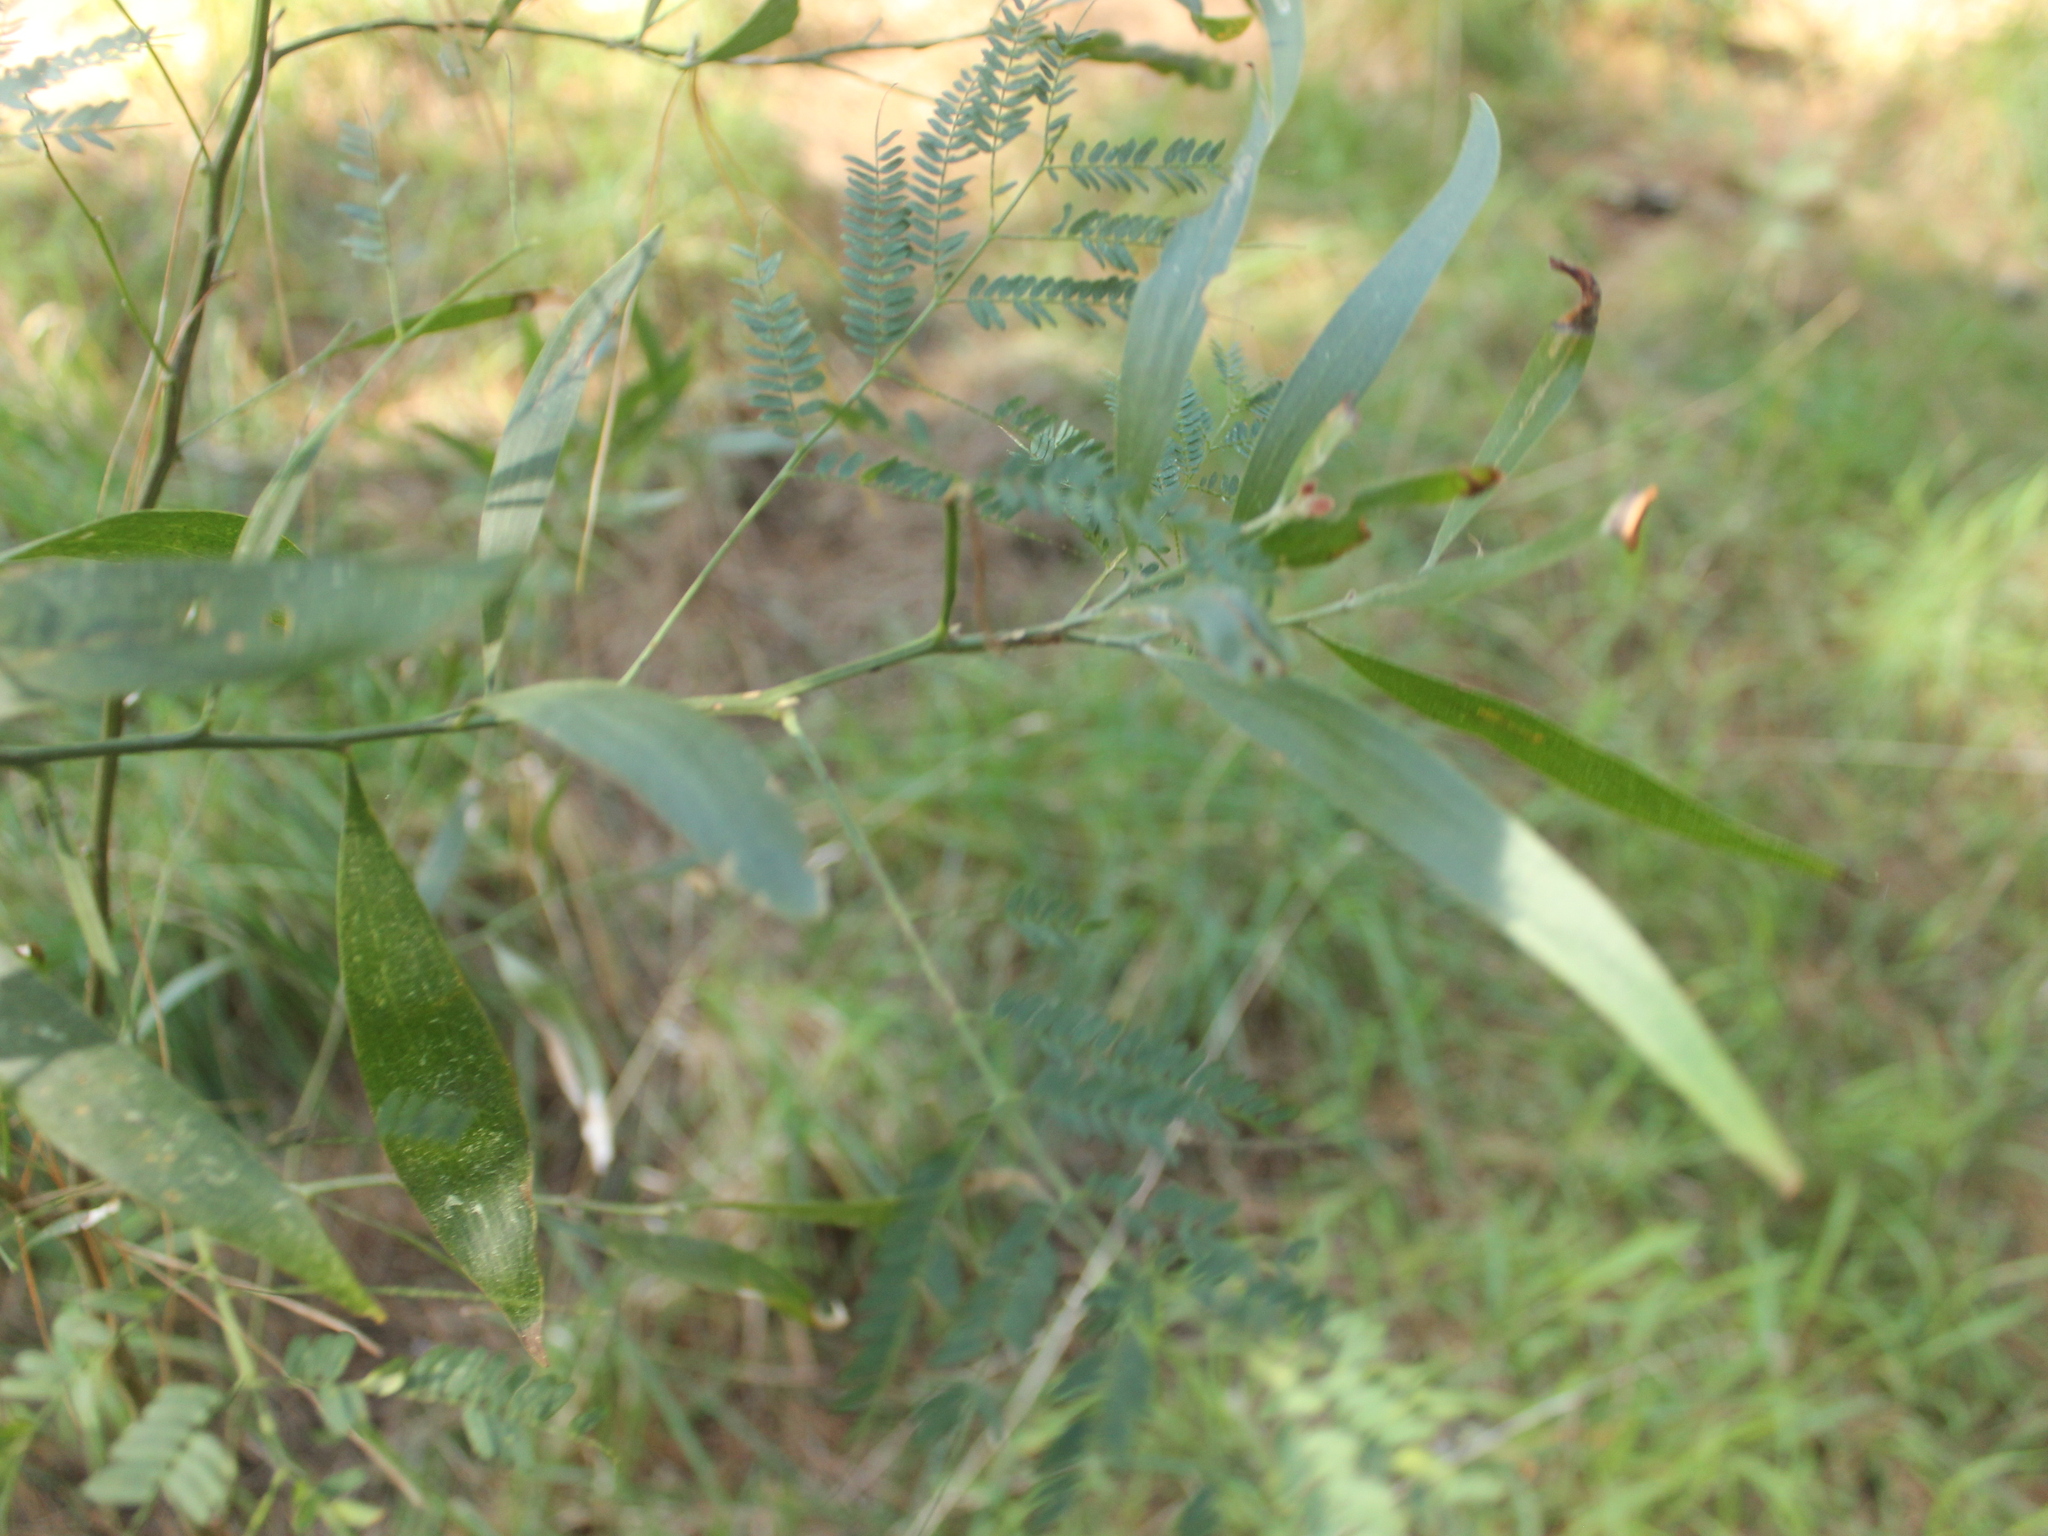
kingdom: Plantae
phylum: Tracheophyta
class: Magnoliopsida
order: Fabales
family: Fabaceae
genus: Acacia
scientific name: Acacia melanoxylon
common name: Blackwood
